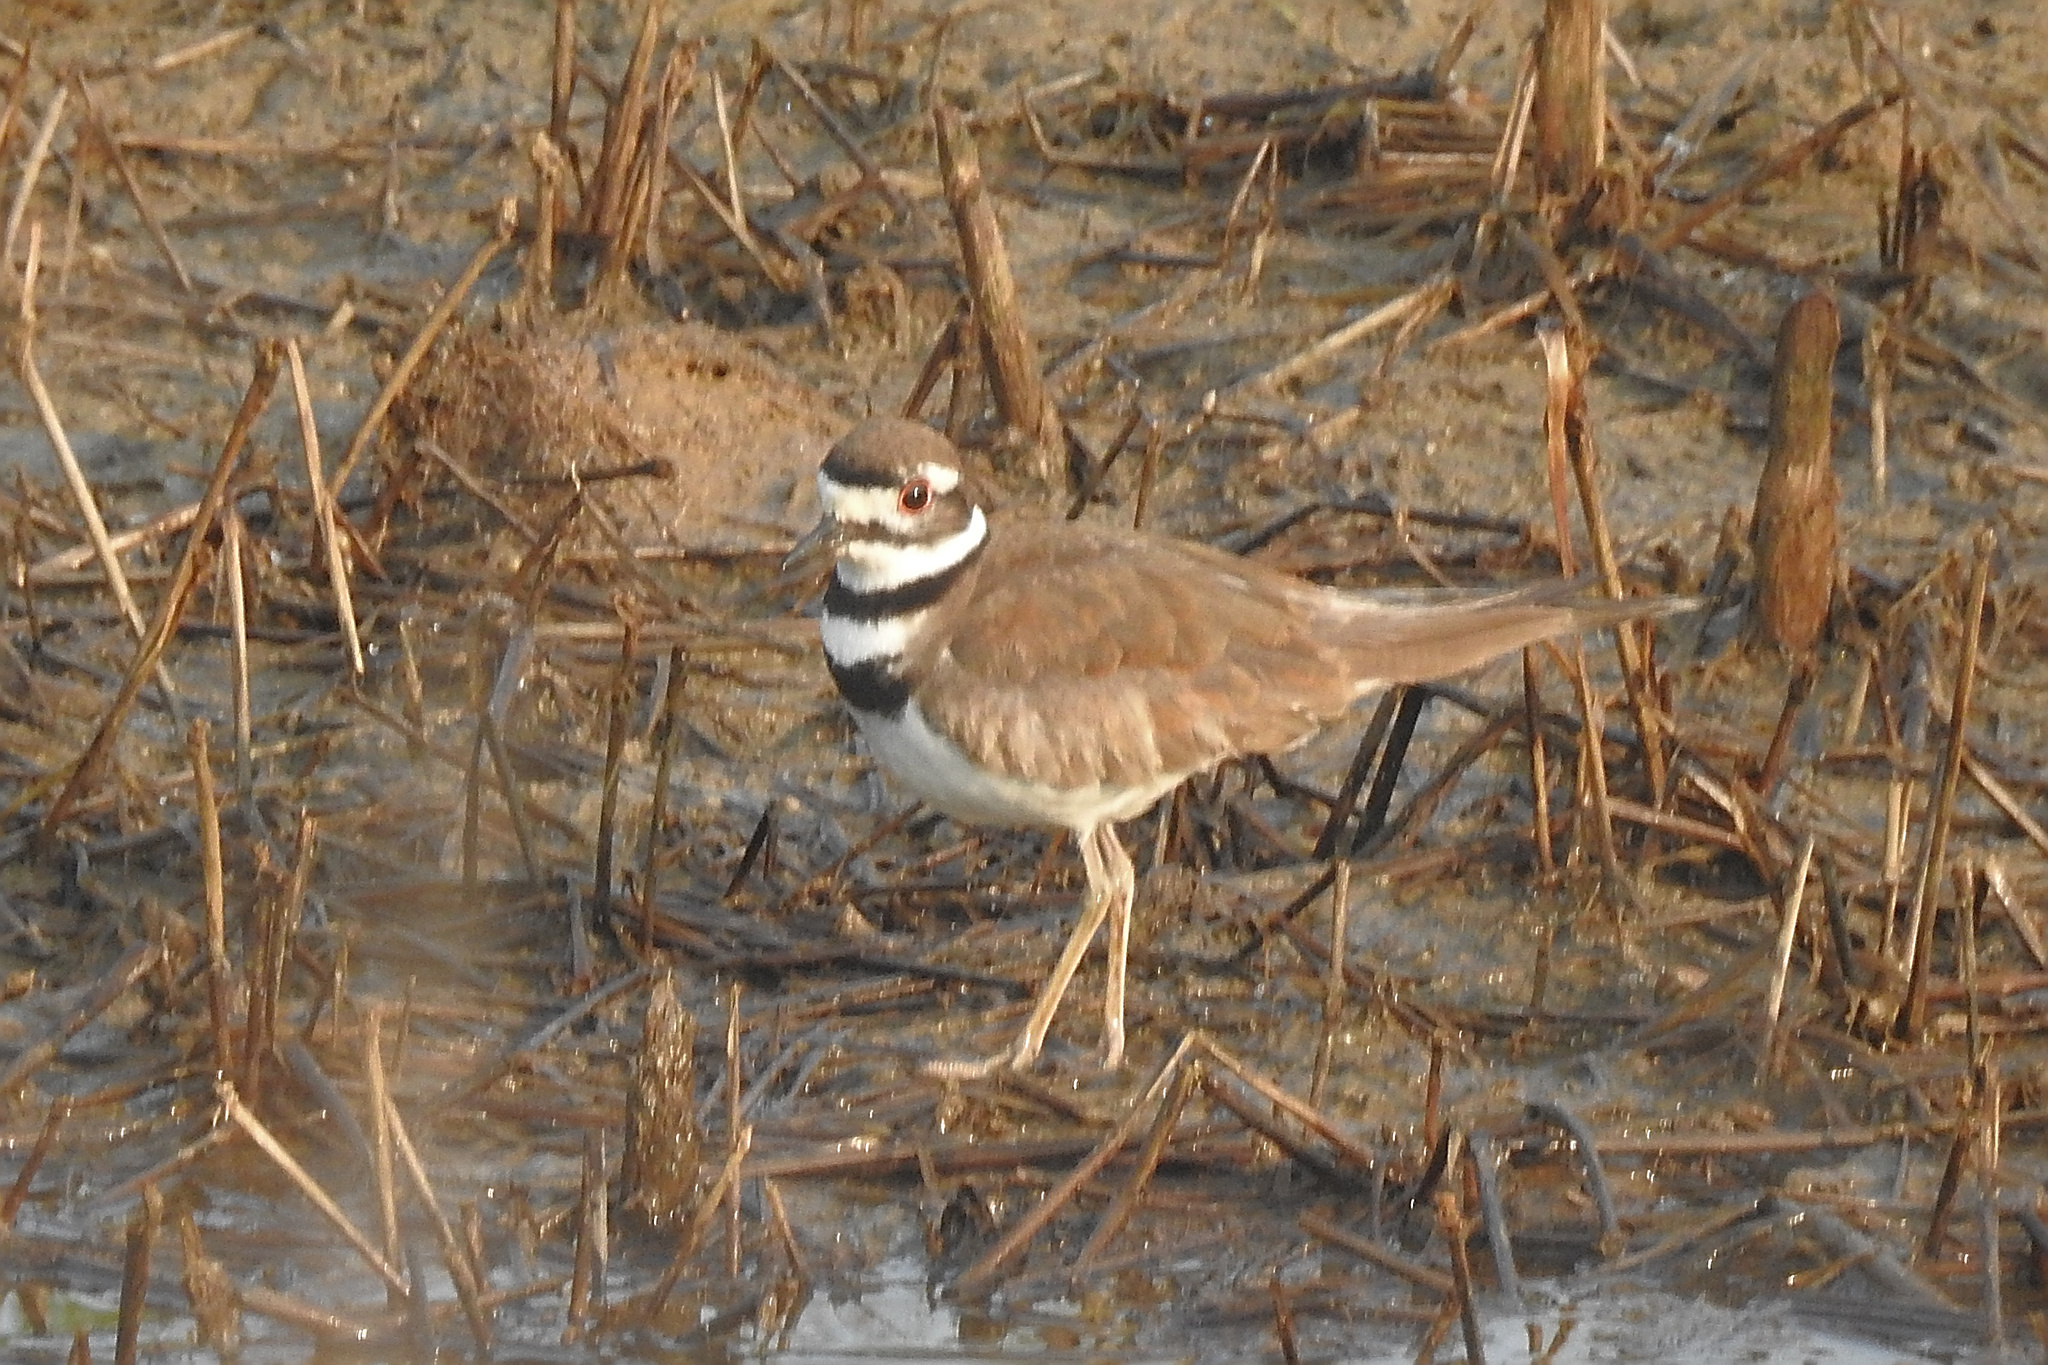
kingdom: Animalia
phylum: Chordata
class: Aves
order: Charadriiformes
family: Charadriidae
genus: Charadrius
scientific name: Charadrius vociferus
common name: Killdeer
